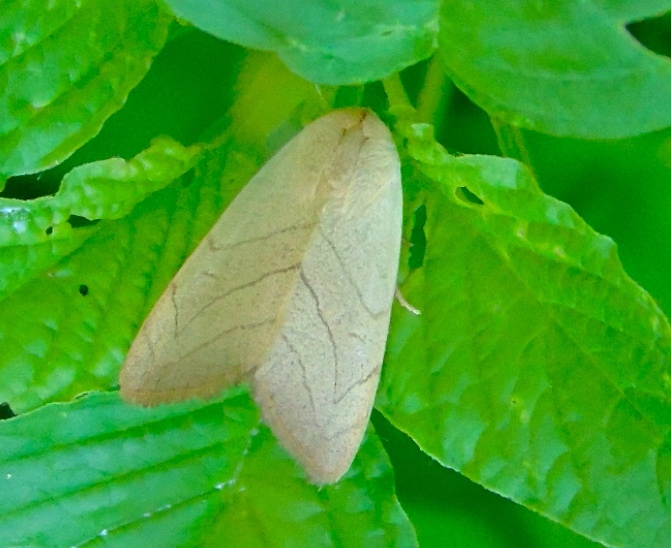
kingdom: Animalia
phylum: Arthropoda
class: Insecta
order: Lepidoptera
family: Noctuidae
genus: Bagisara
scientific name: Bagisara
